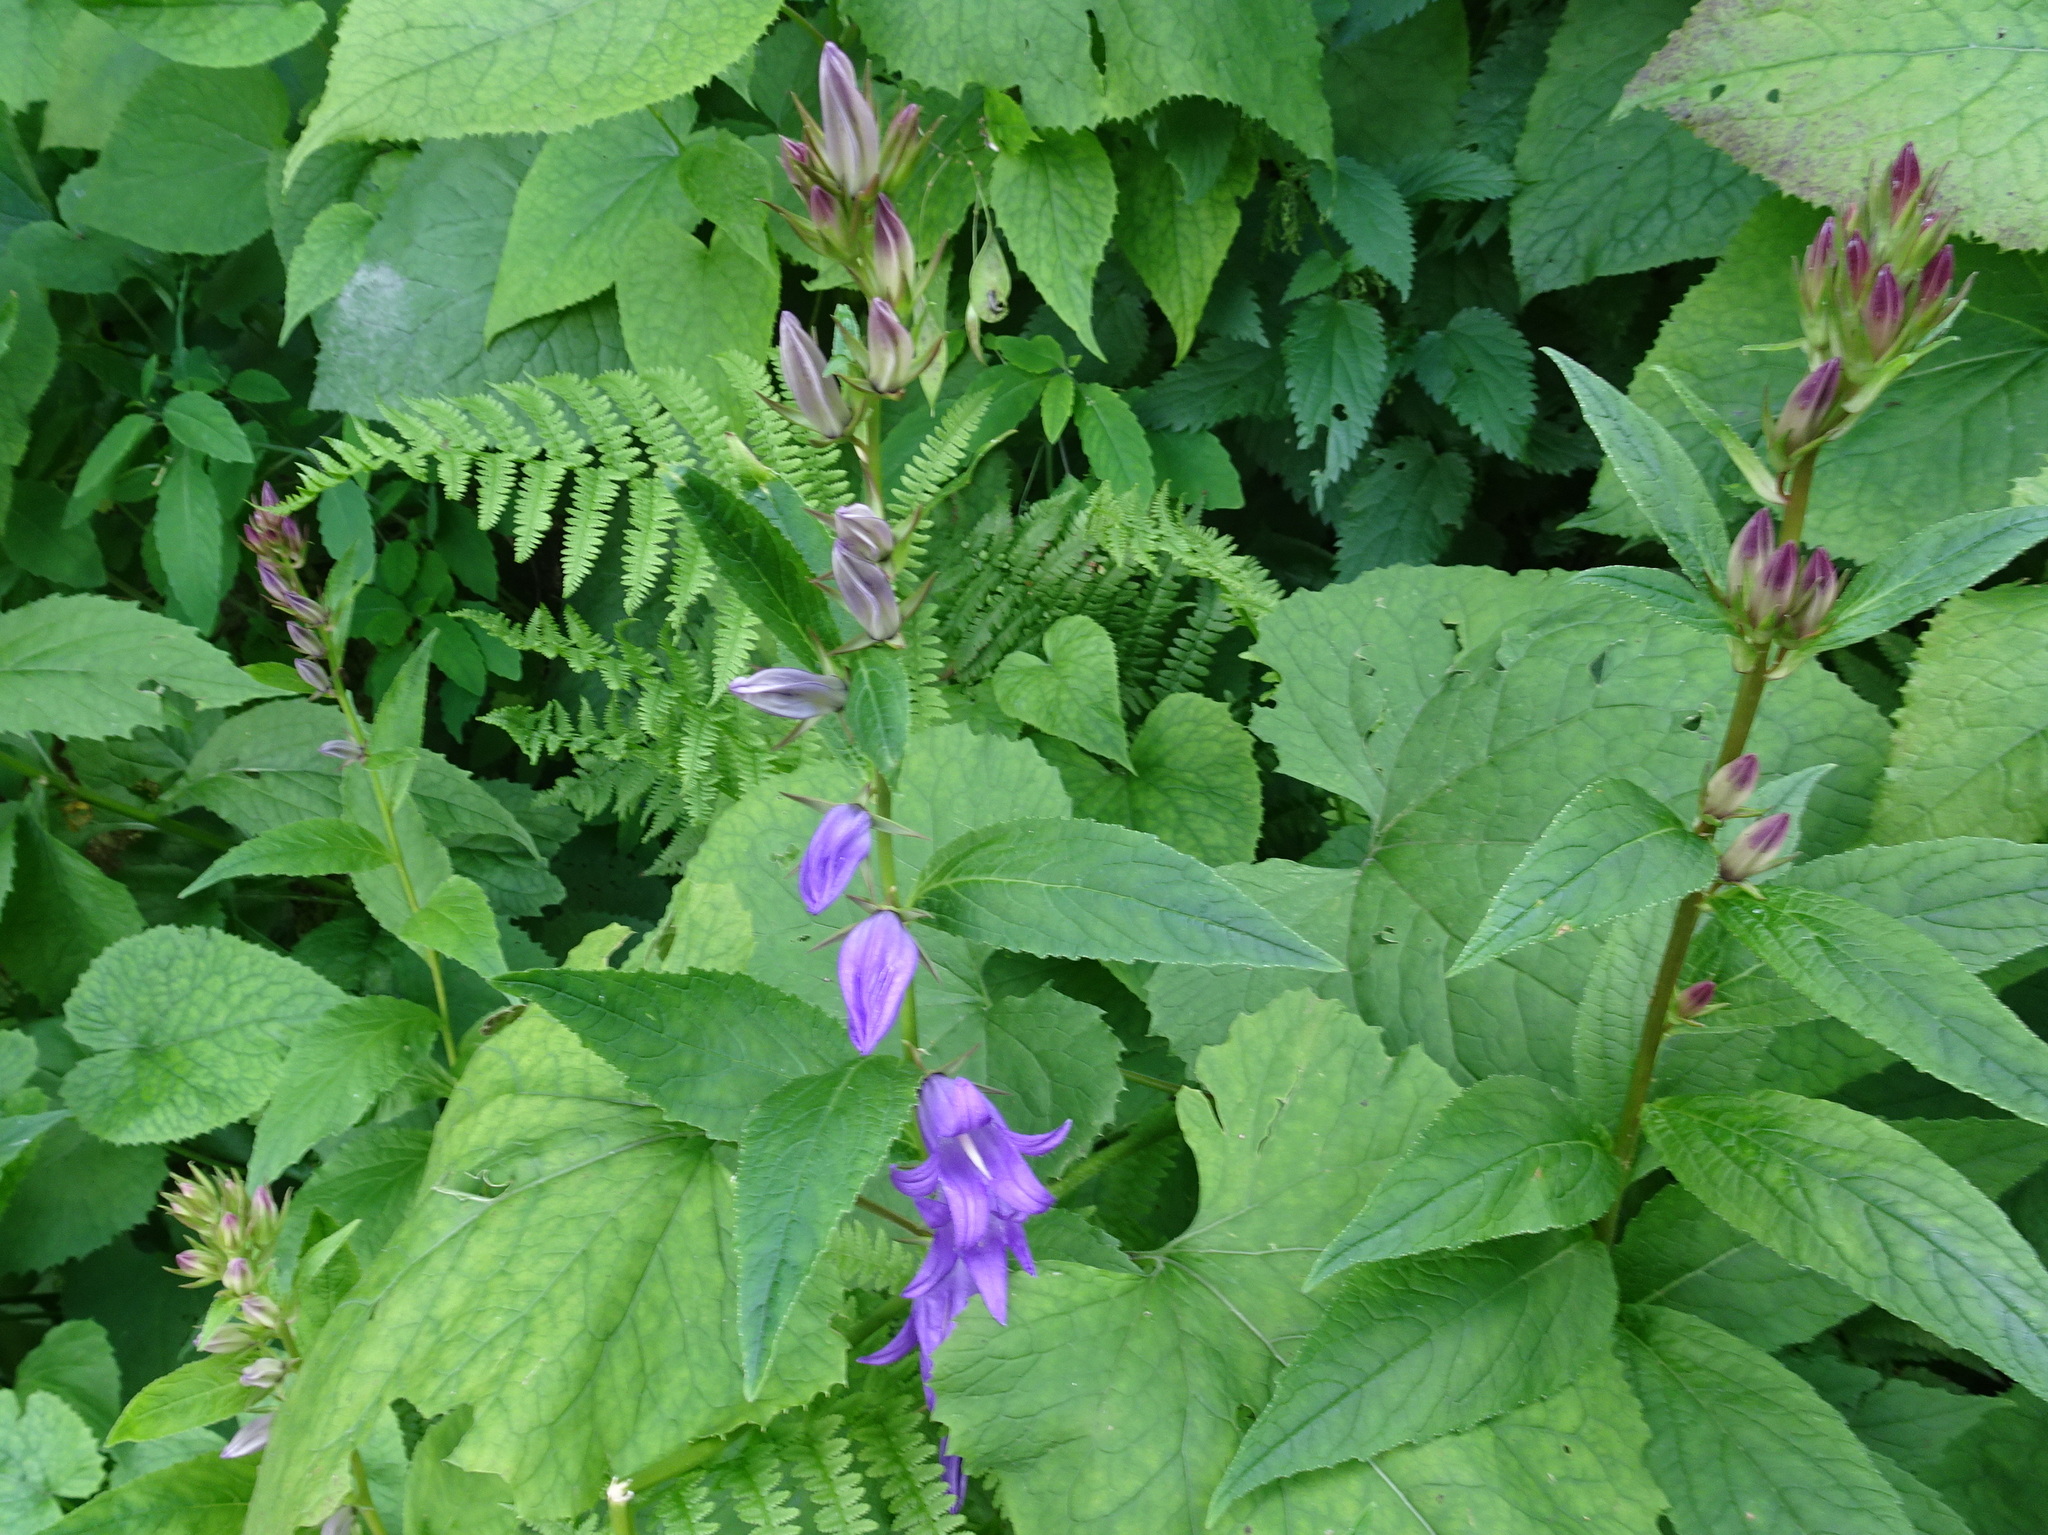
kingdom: Plantae
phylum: Tracheophyta
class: Magnoliopsida
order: Asterales
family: Campanulaceae
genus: Campanula
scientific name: Campanula latifolia
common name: Giant bellflower
